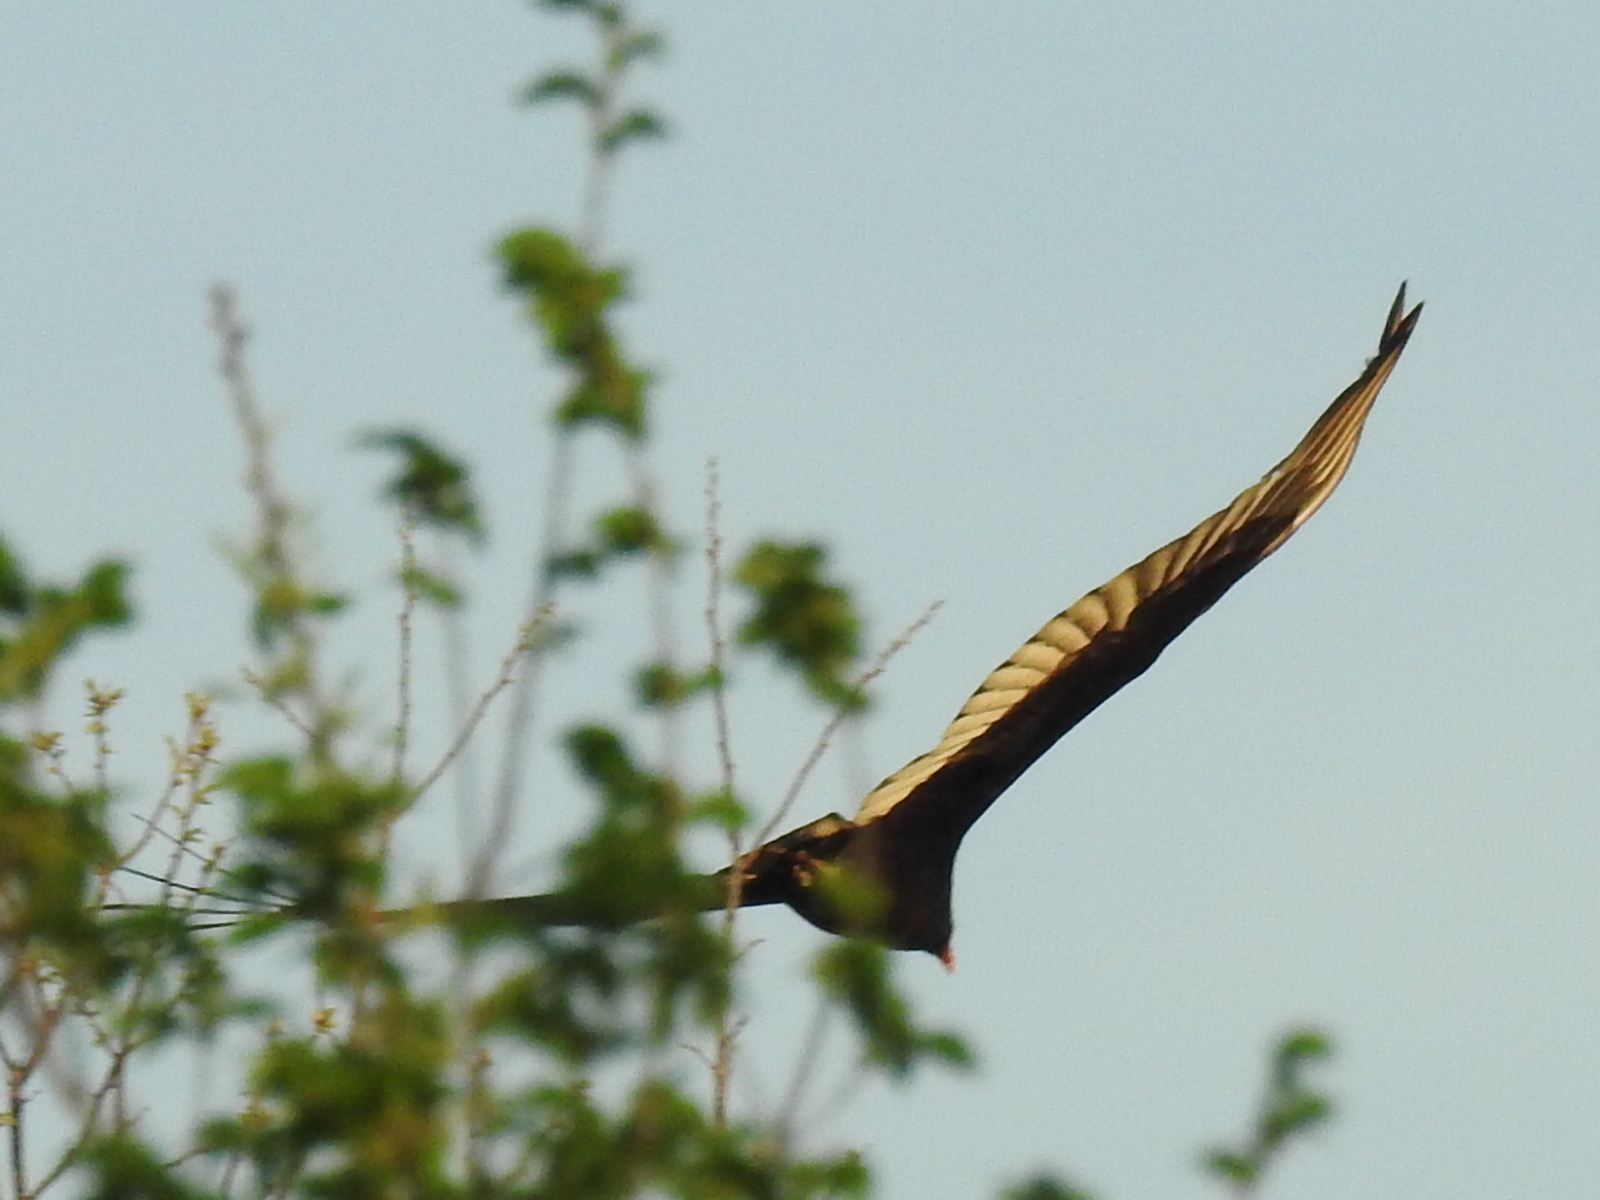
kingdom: Animalia
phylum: Chordata
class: Aves
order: Accipitriformes
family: Cathartidae
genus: Cathartes
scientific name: Cathartes aura
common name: Turkey vulture
